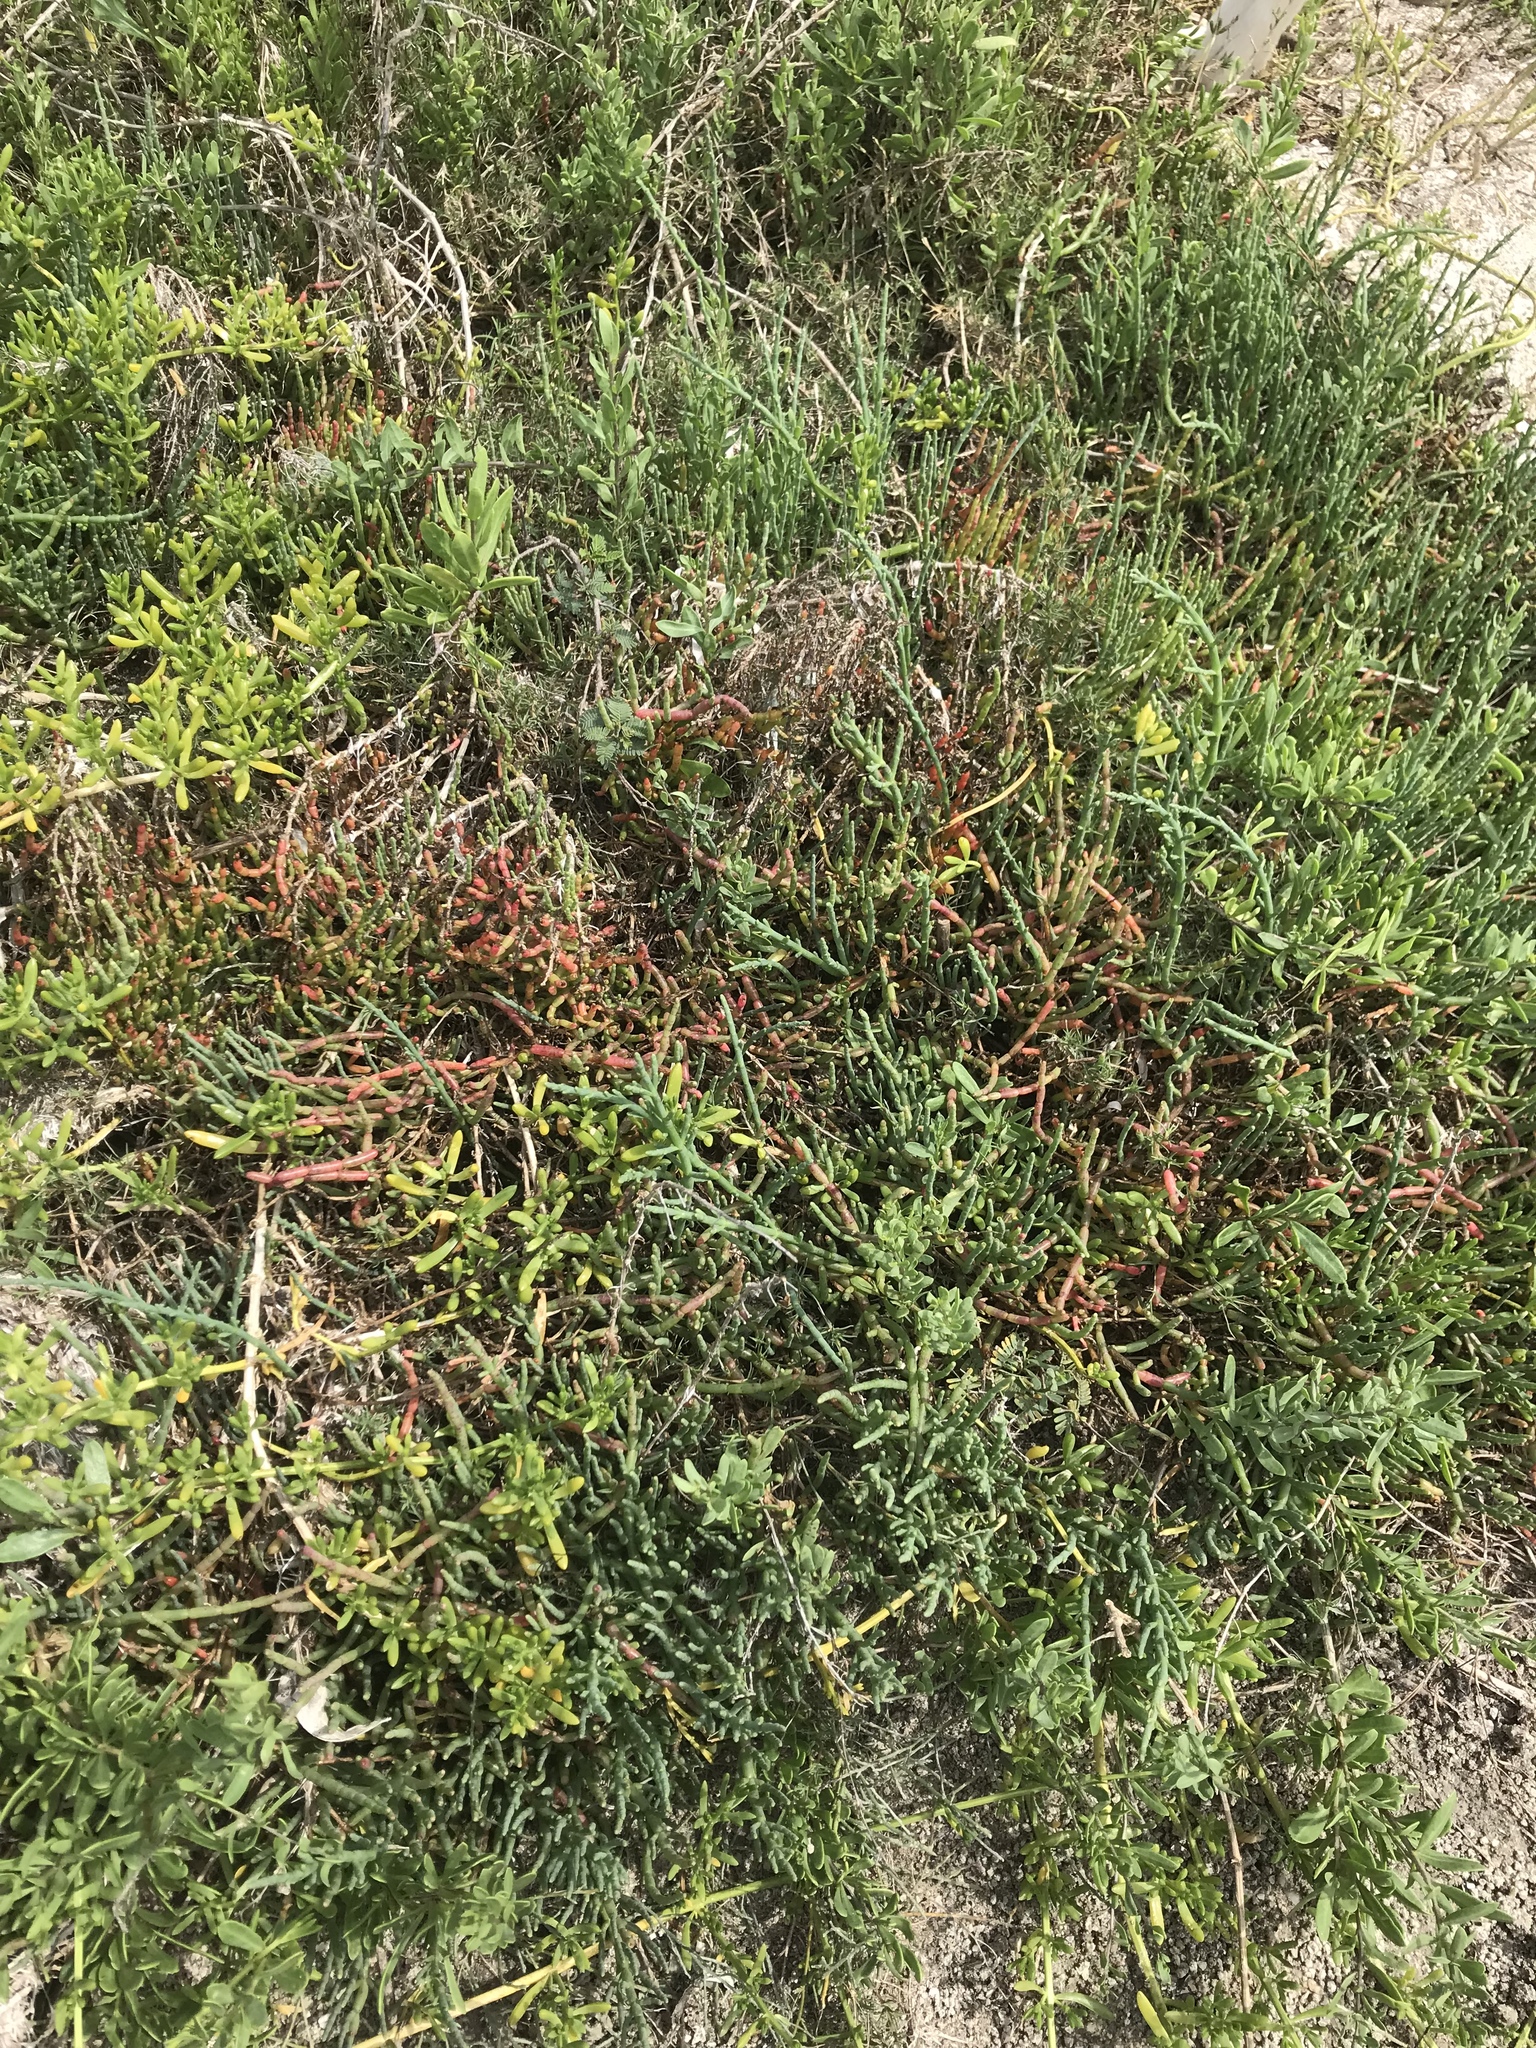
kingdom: Plantae
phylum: Tracheophyta
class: Magnoliopsida
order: Caryophyllales
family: Amaranthaceae
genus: Salicornia
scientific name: Salicornia virginica
